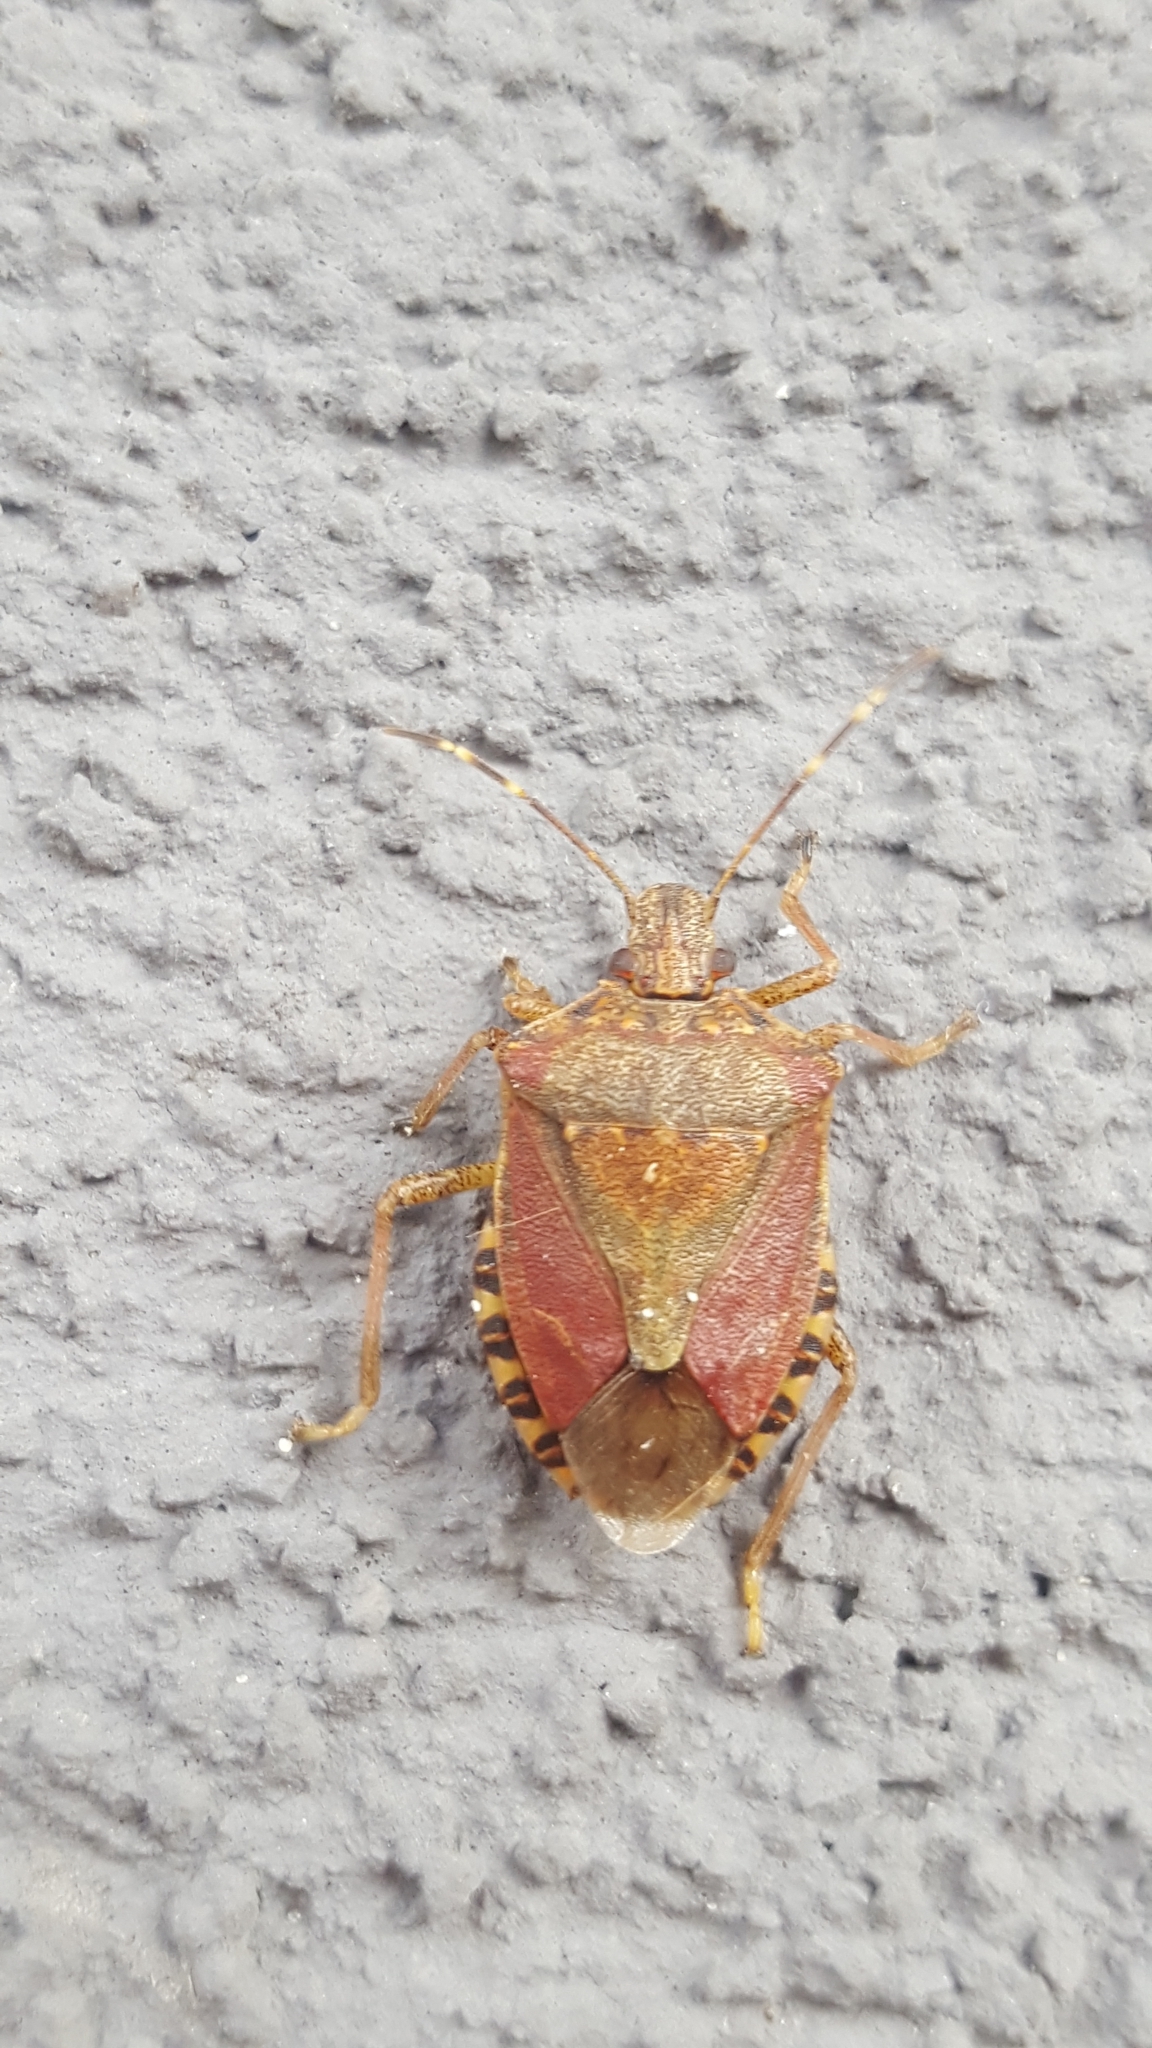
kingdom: Animalia
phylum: Arthropoda
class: Insecta
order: Hemiptera
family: Pentatomidae
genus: Halyomorpha
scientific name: Halyomorpha halys
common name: Brown marmorated stink bug
